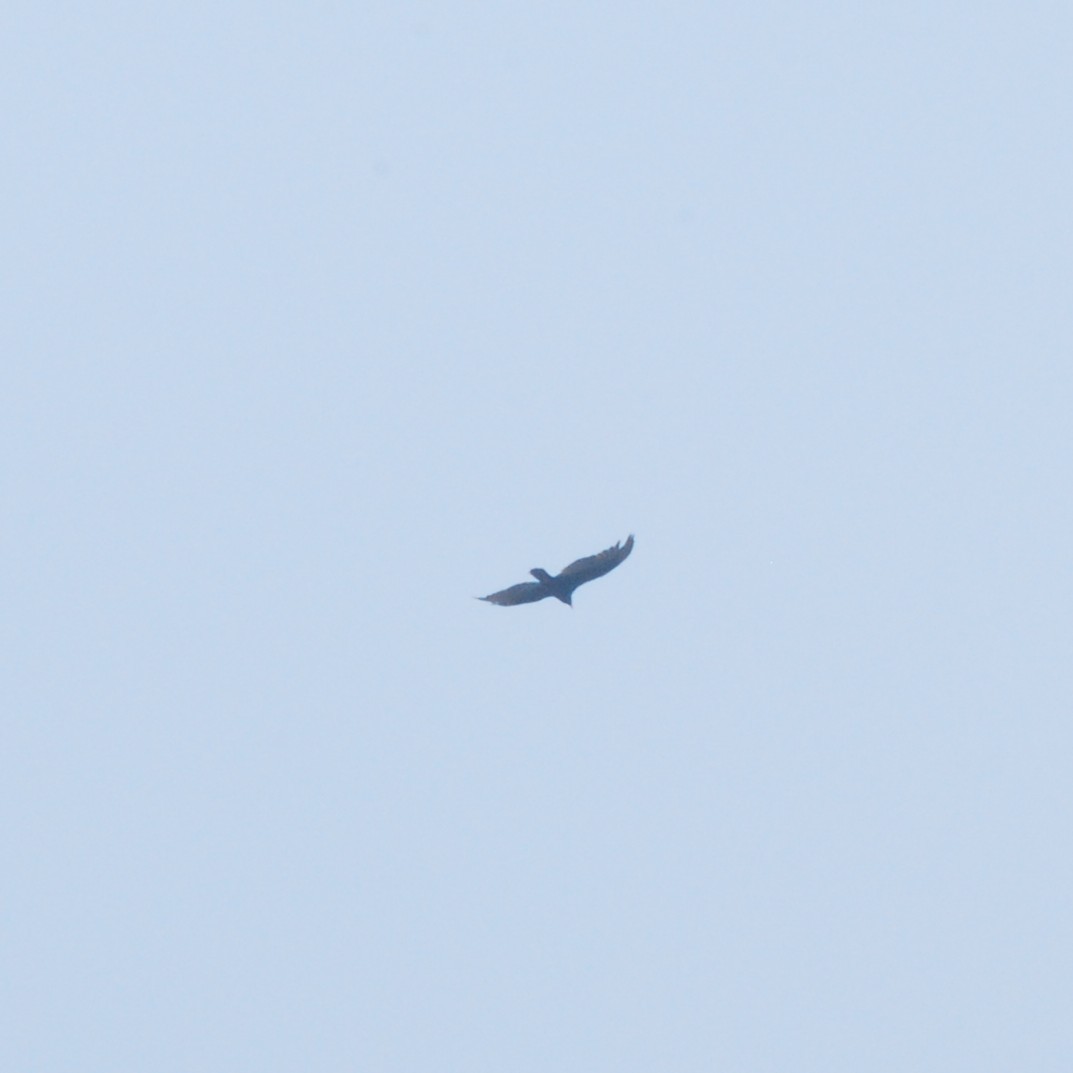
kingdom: Animalia
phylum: Chordata
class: Aves
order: Accipitriformes
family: Cathartidae
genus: Cathartes
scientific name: Cathartes aura
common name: Turkey vulture
